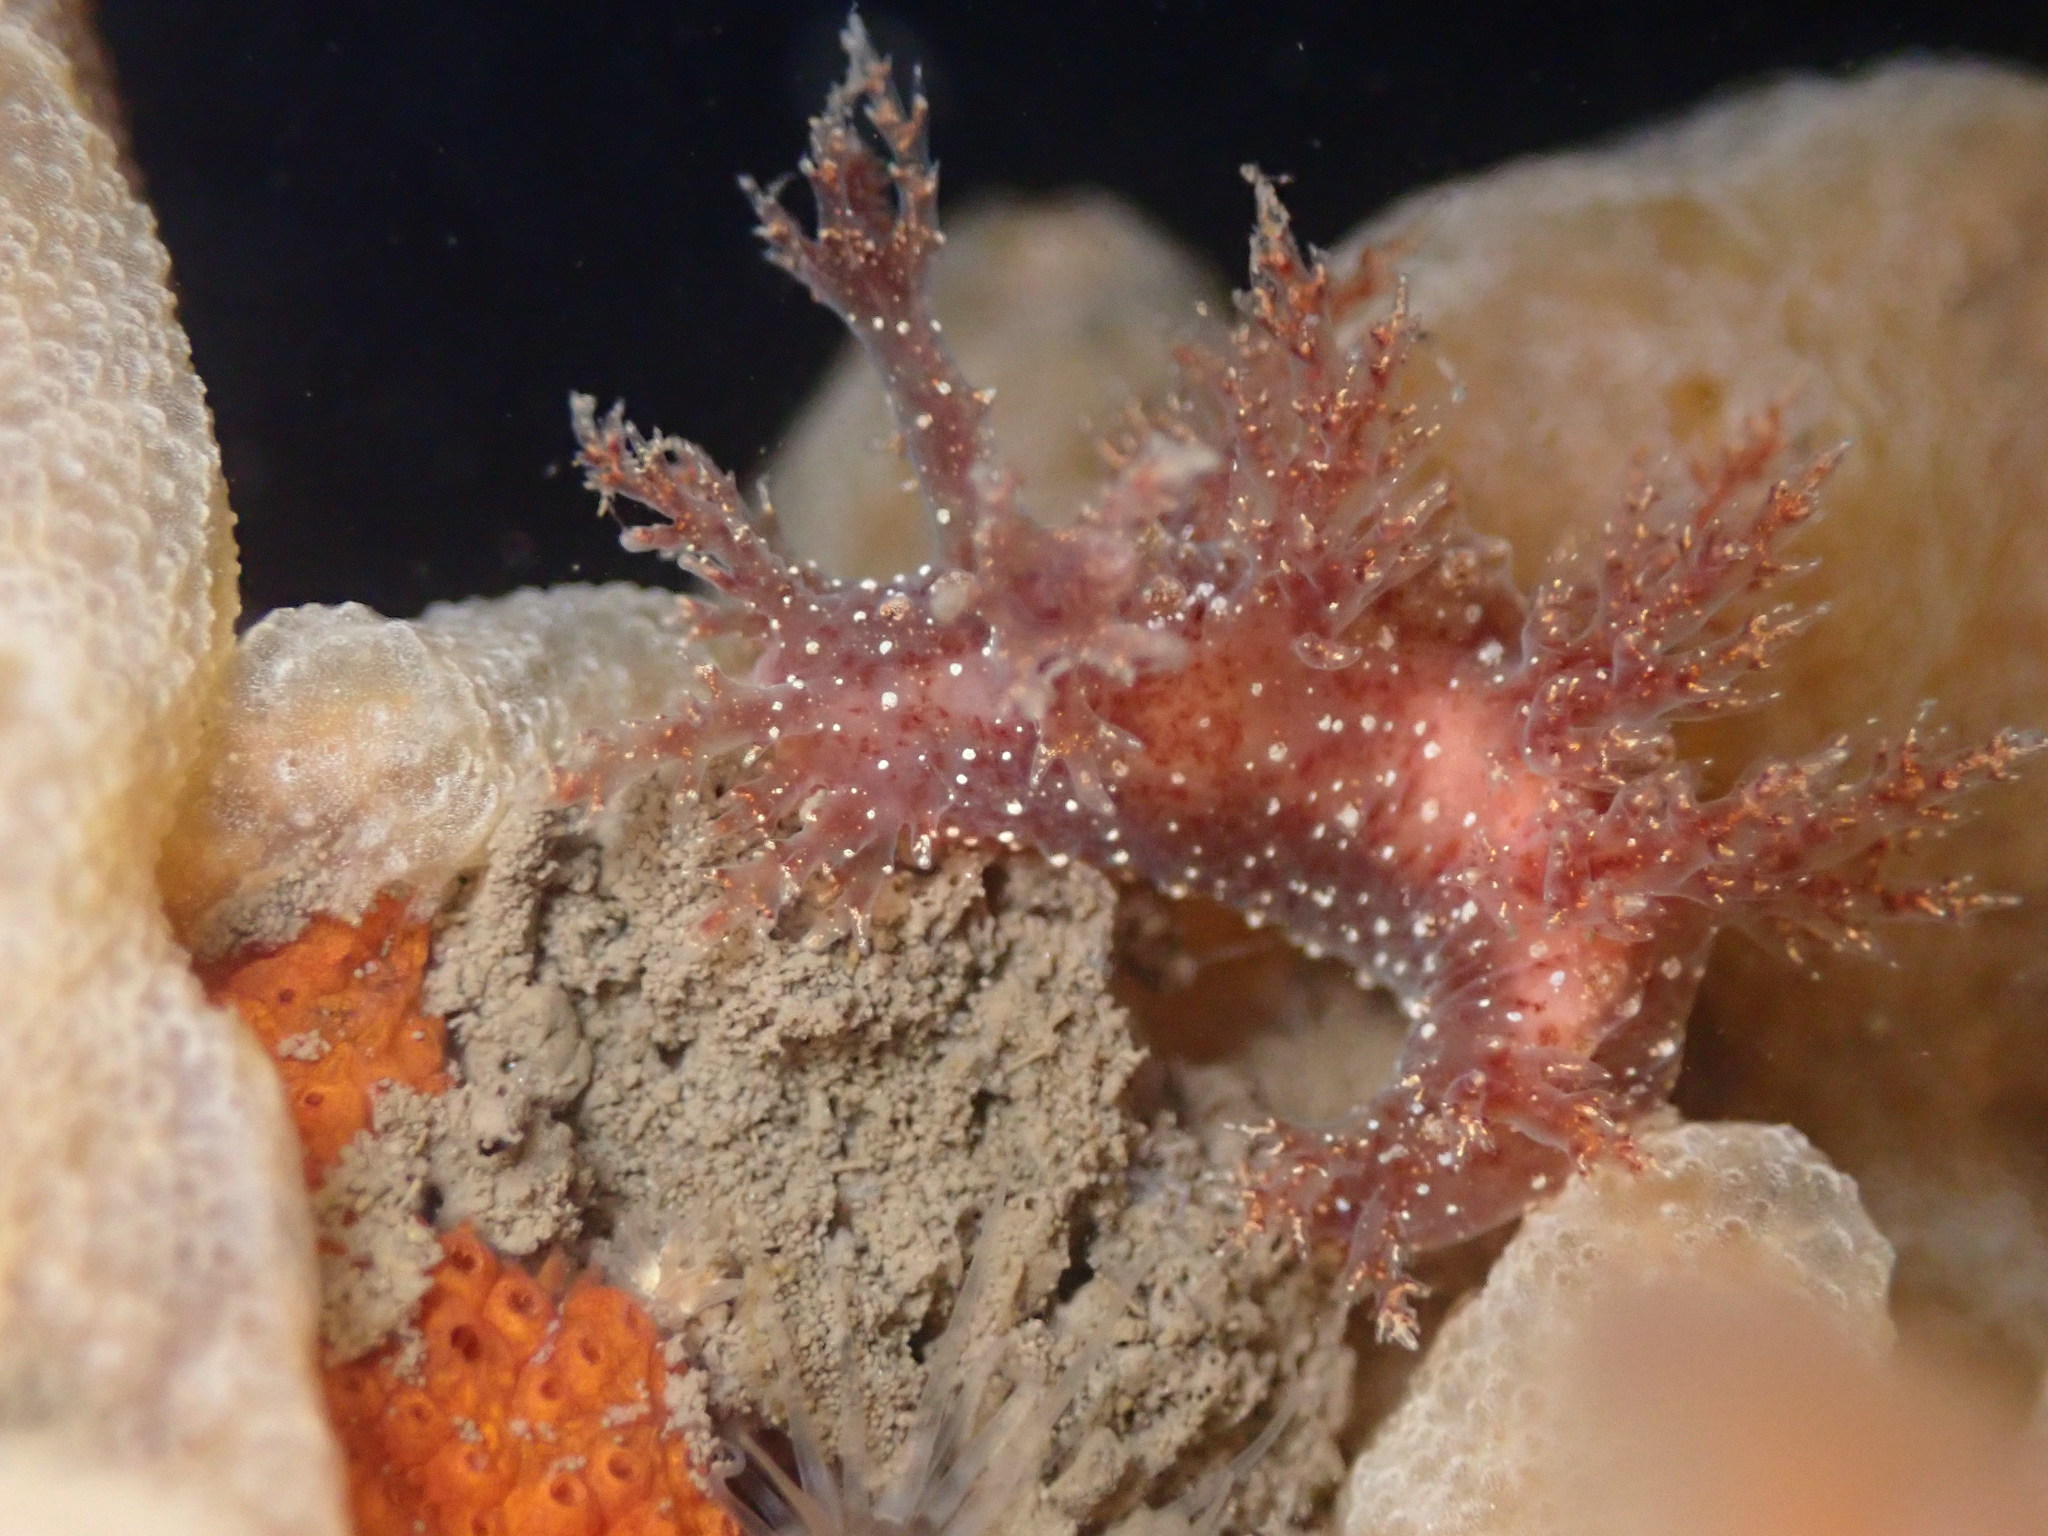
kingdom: Animalia
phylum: Mollusca
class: Gastropoda
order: Nudibranchia
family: Dendronotidae
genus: Dendronotus
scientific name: Dendronotus venustus
